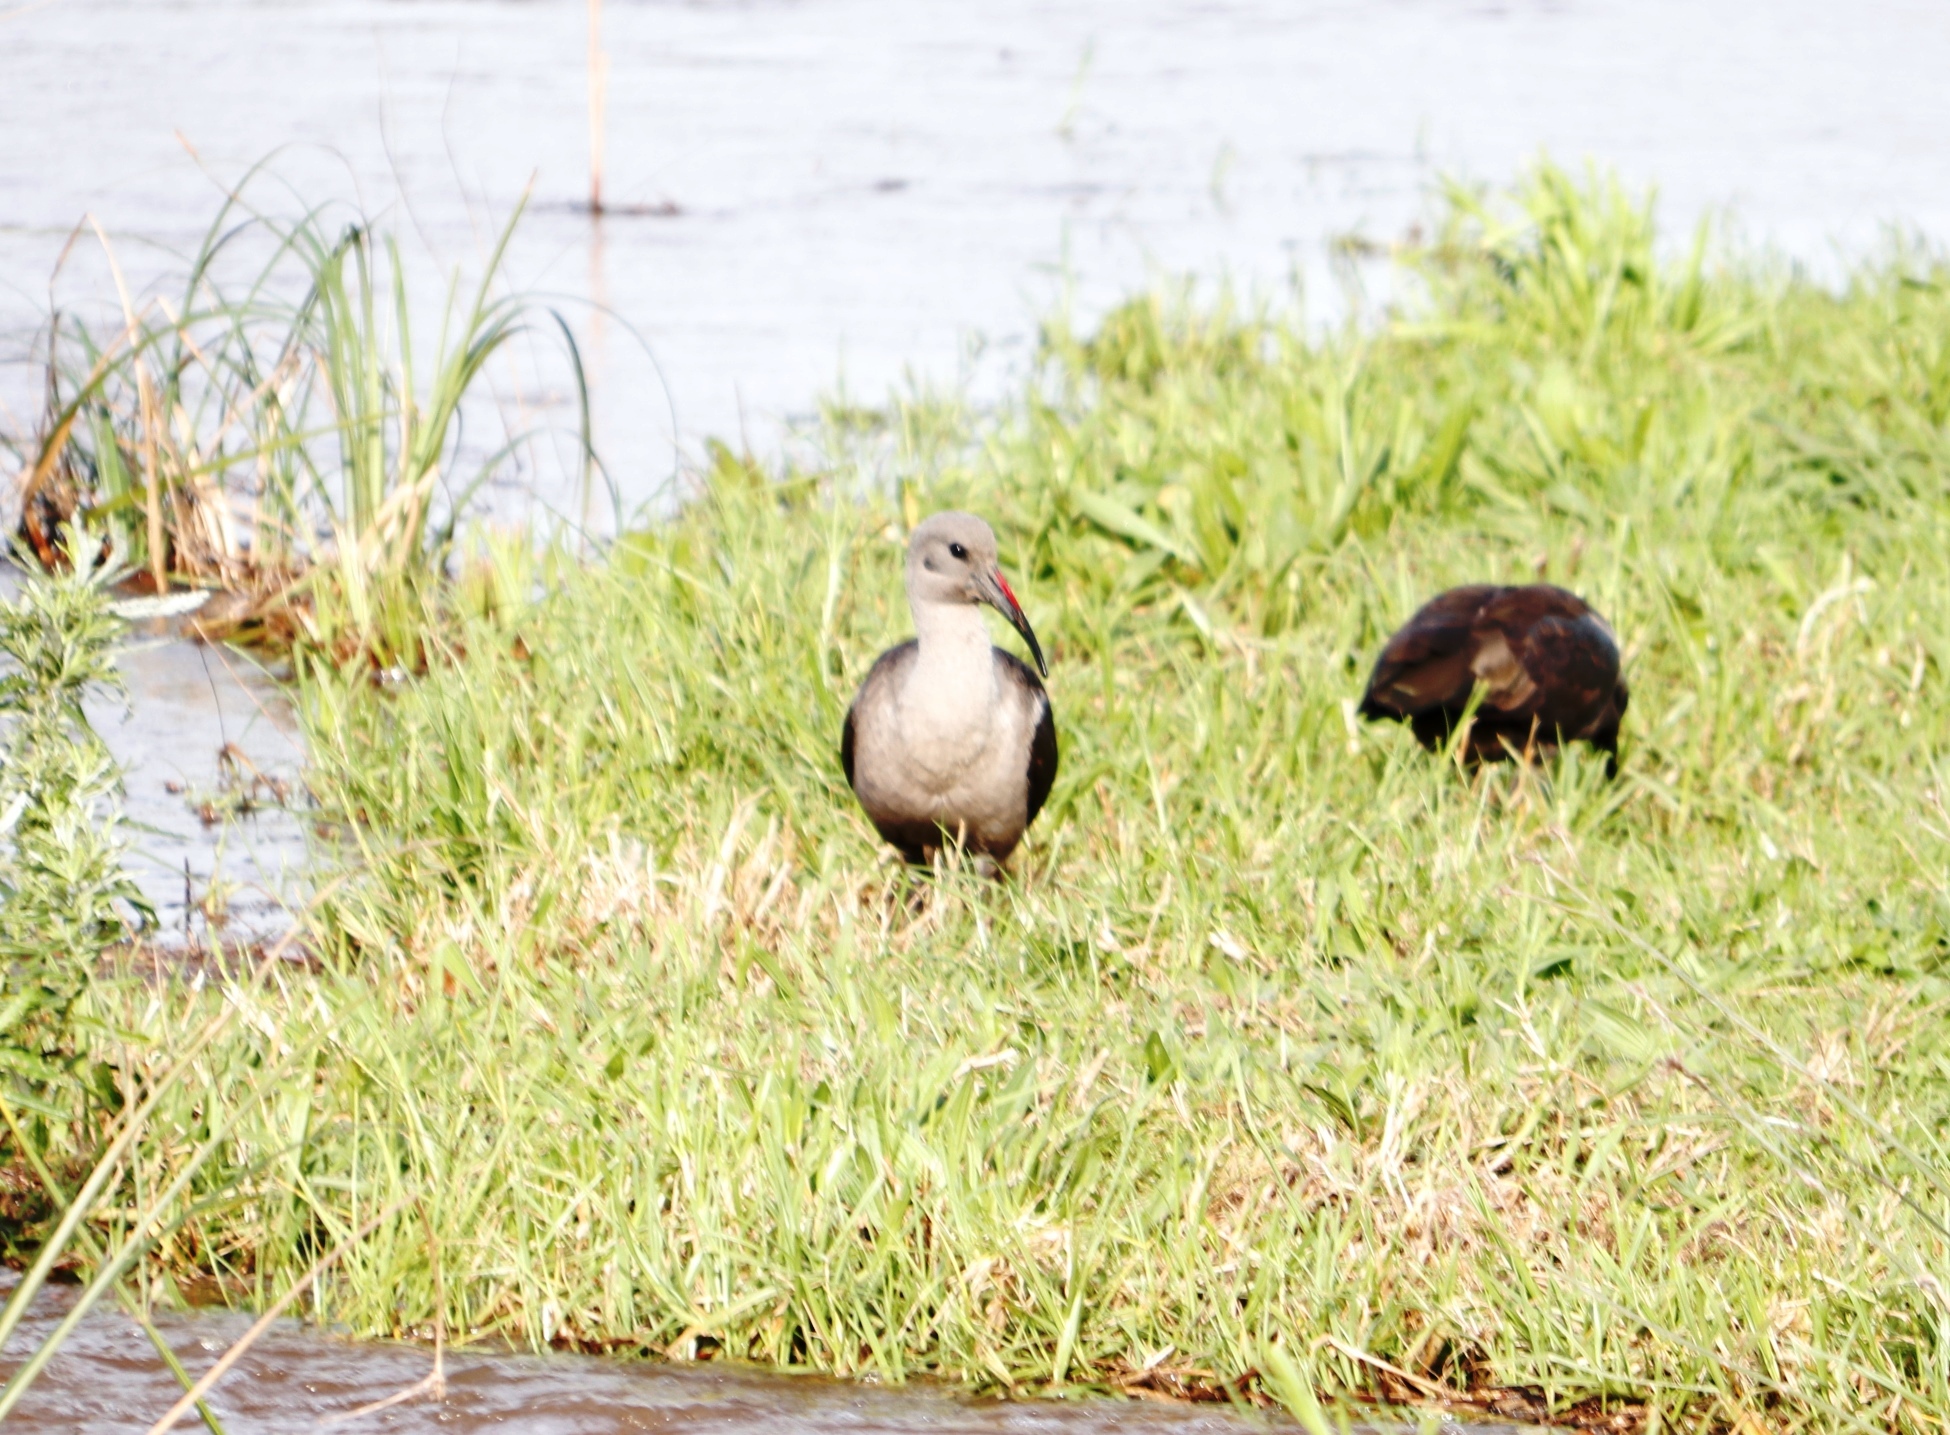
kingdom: Animalia
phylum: Chordata
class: Aves
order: Pelecaniformes
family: Threskiornithidae
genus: Bostrychia
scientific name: Bostrychia hagedash
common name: Hadada ibis
